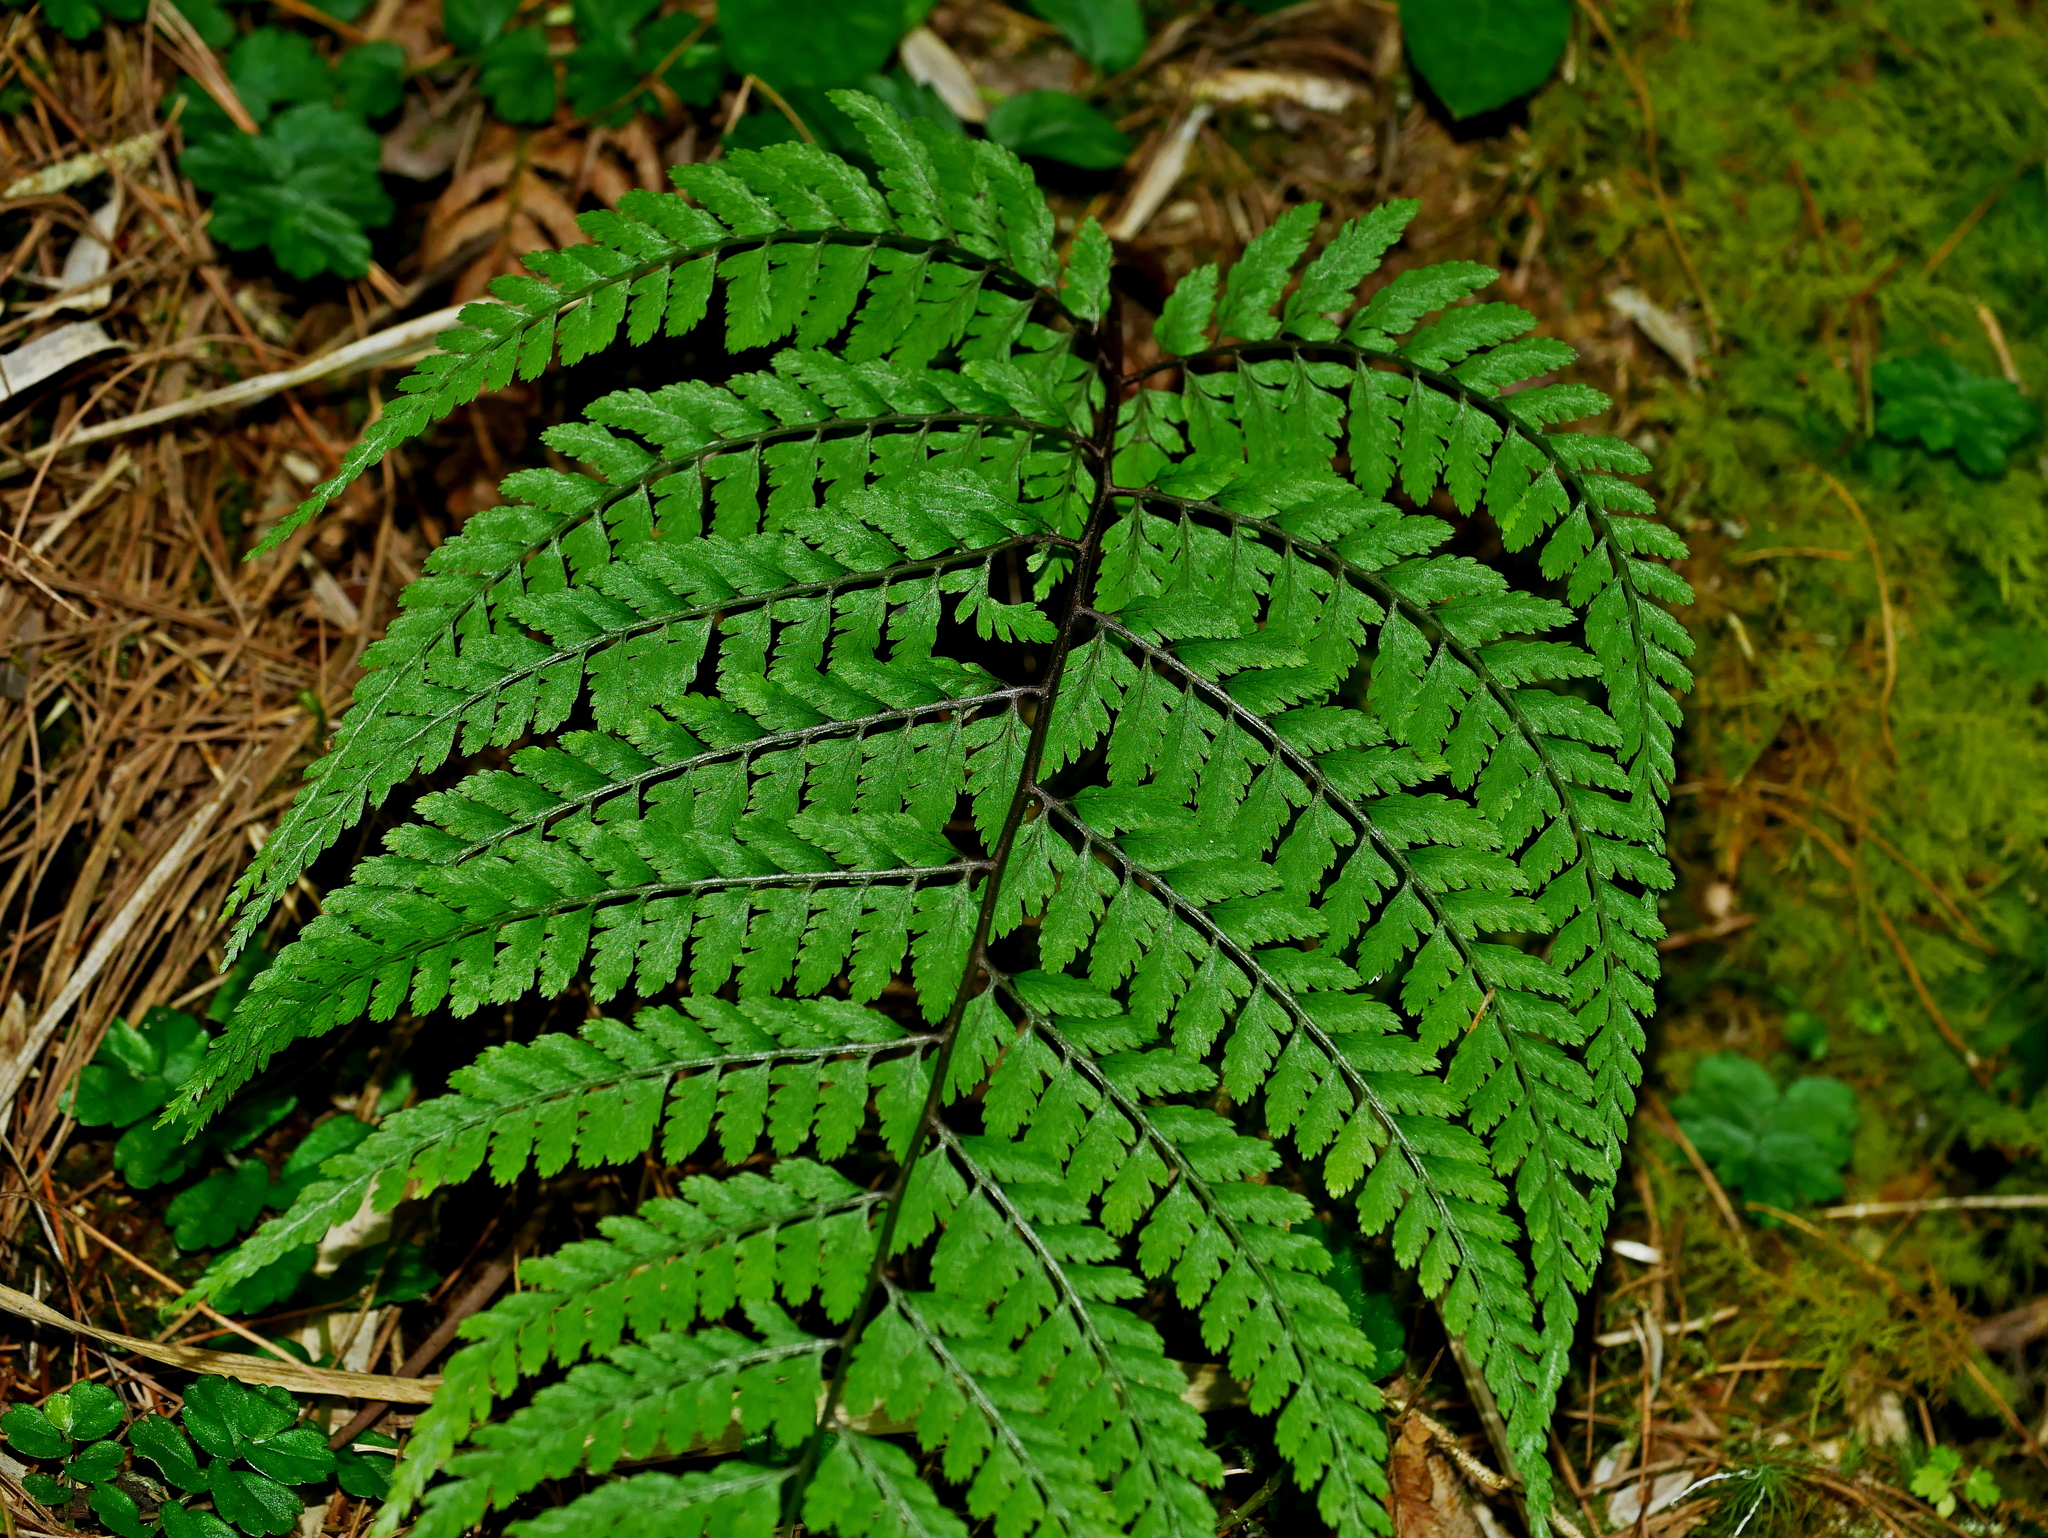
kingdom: Plantae
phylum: Tracheophyta
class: Polypodiopsida
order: Polypodiales
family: Athyriaceae
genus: Athyrium
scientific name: Athyrium tripinnatum
